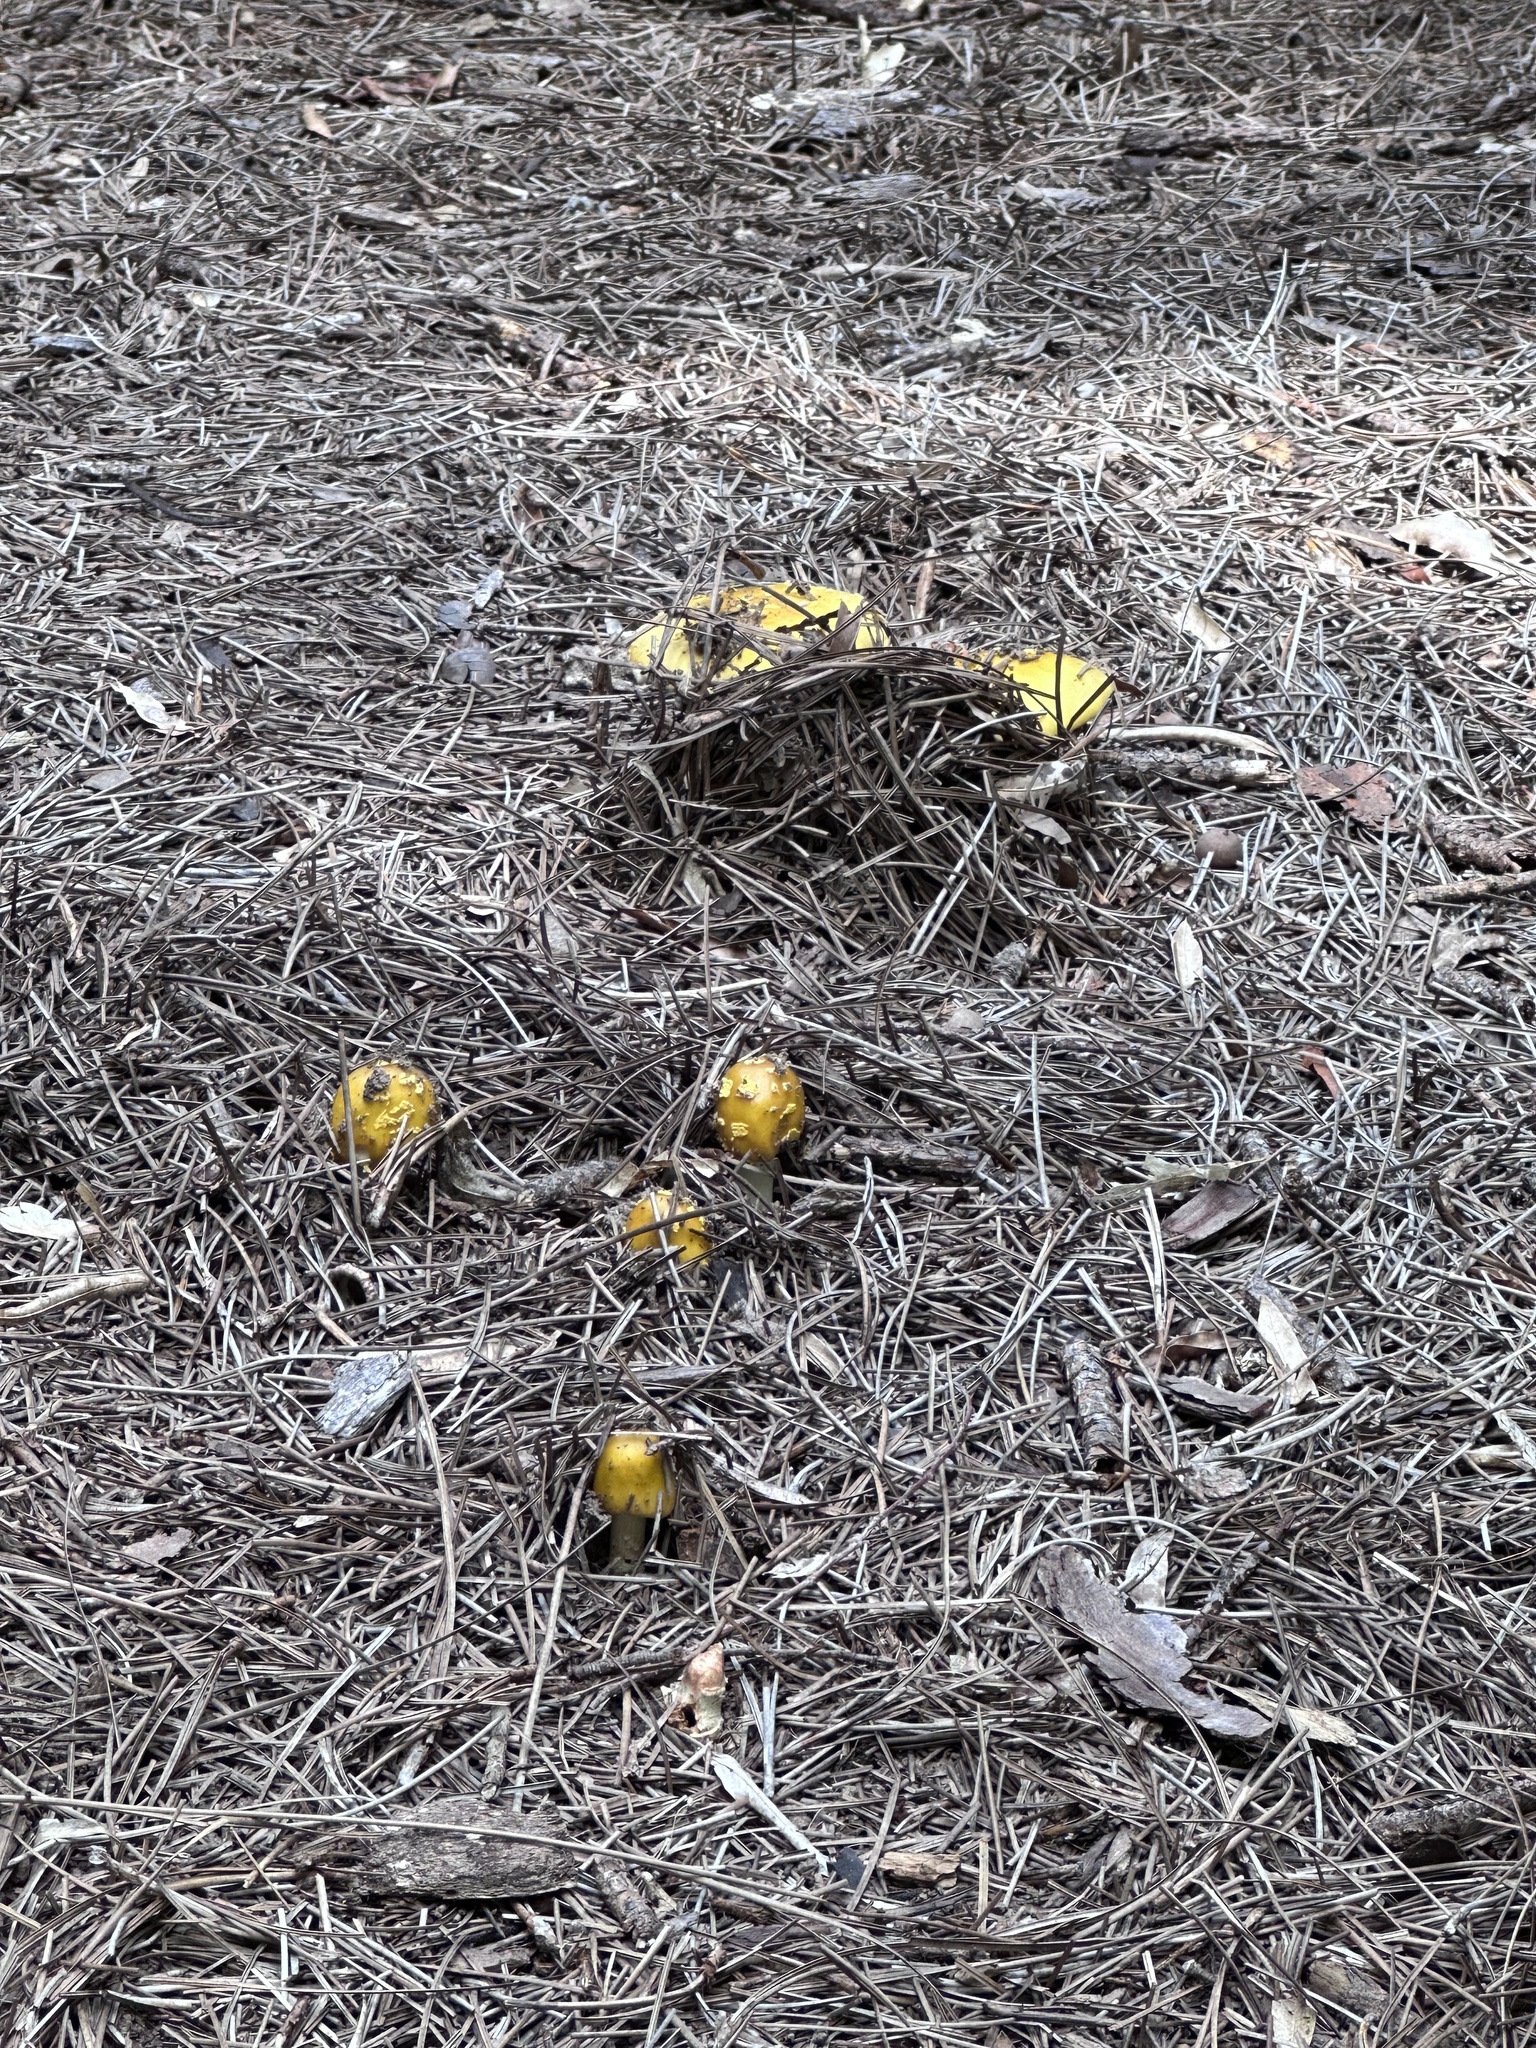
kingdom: Fungi
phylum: Basidiomycota
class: Agaricomycetes
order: Agaricales
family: Amanitaceae
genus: Amanita
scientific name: Amanita flavorubens
